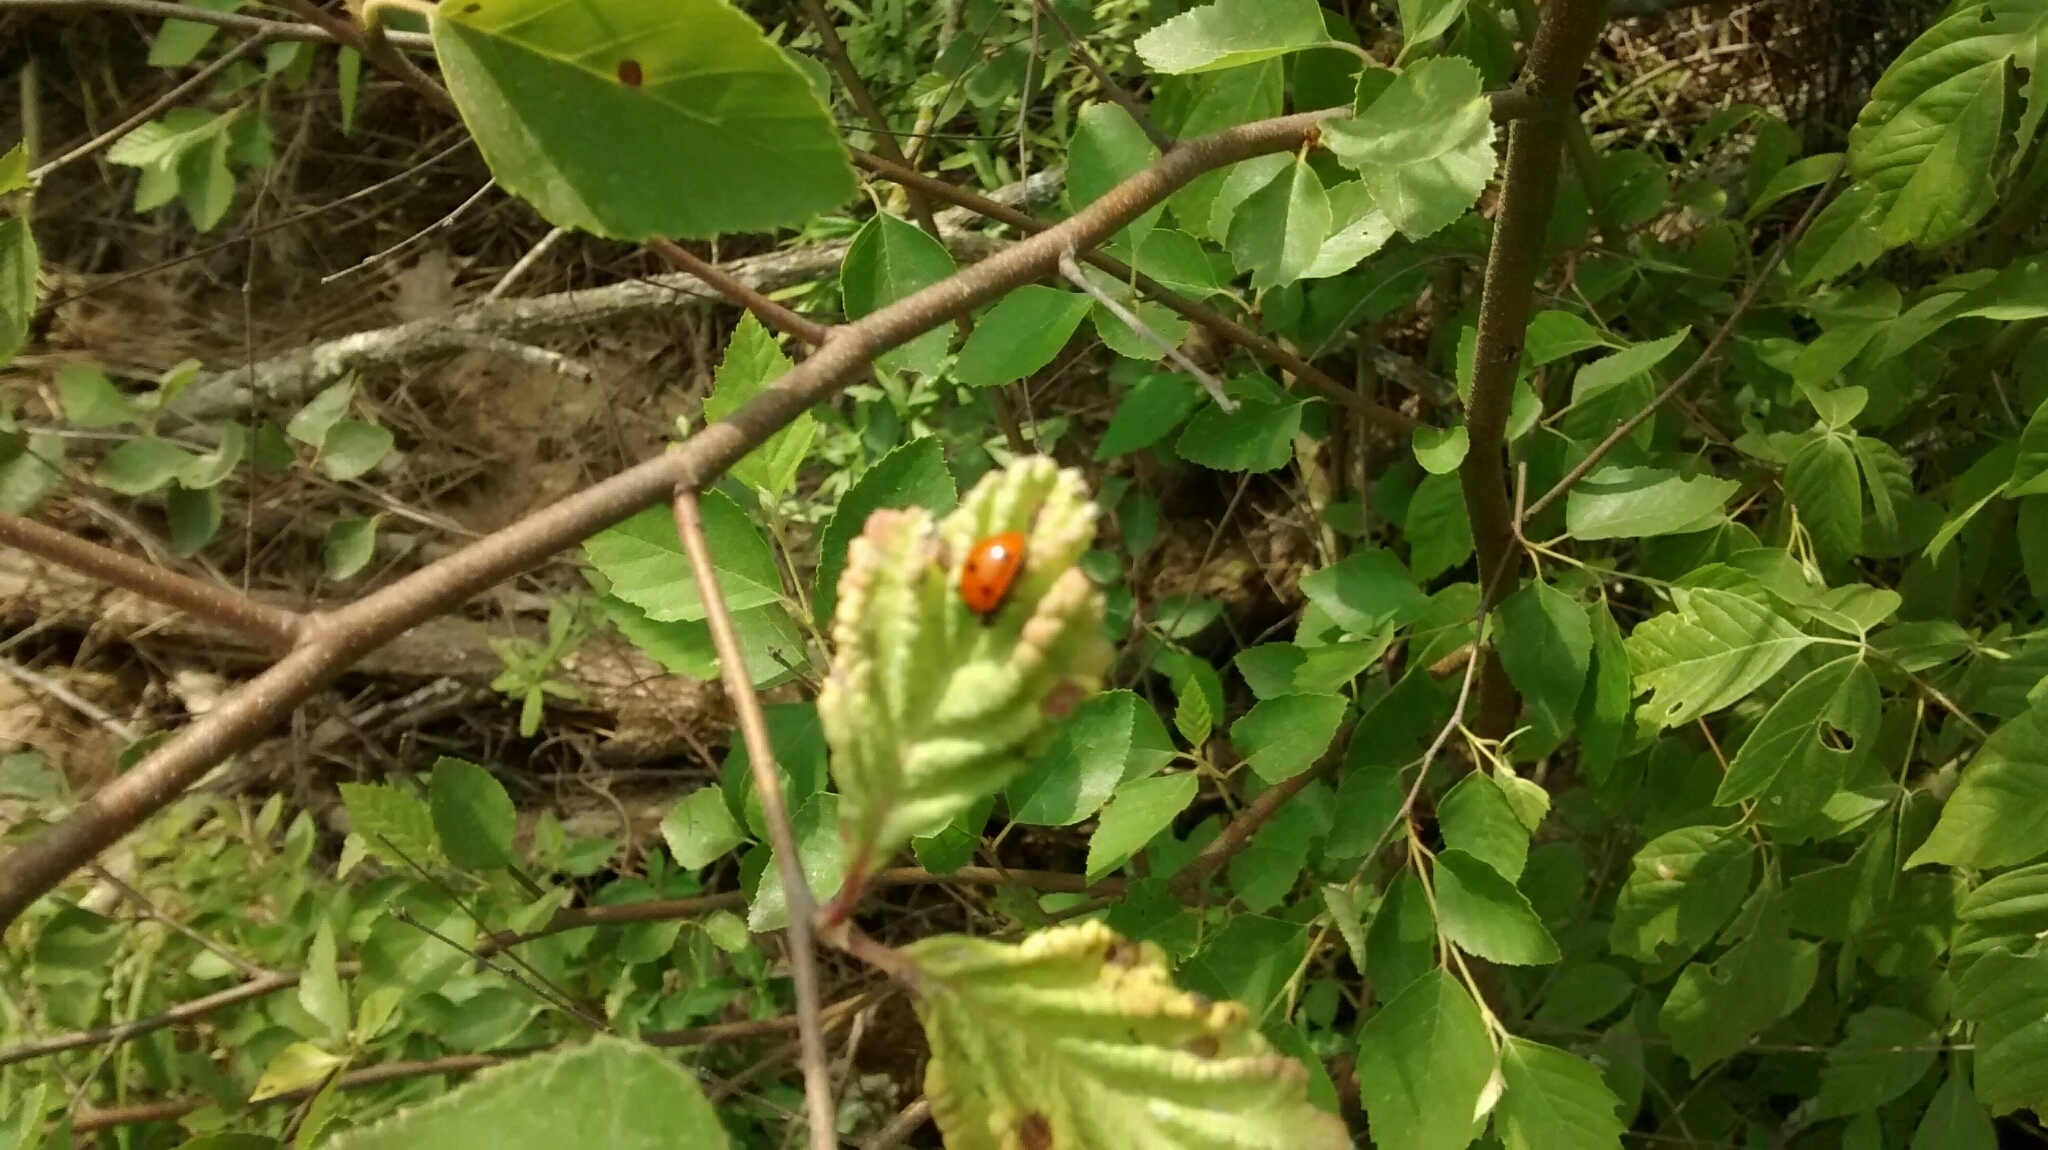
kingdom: Animalia
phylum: Arthropoda
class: Insecta
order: Coleoptera
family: Coccinellidae
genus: Coccinella
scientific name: Coccinella septempunctata
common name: Sevenspotted lady beetle
